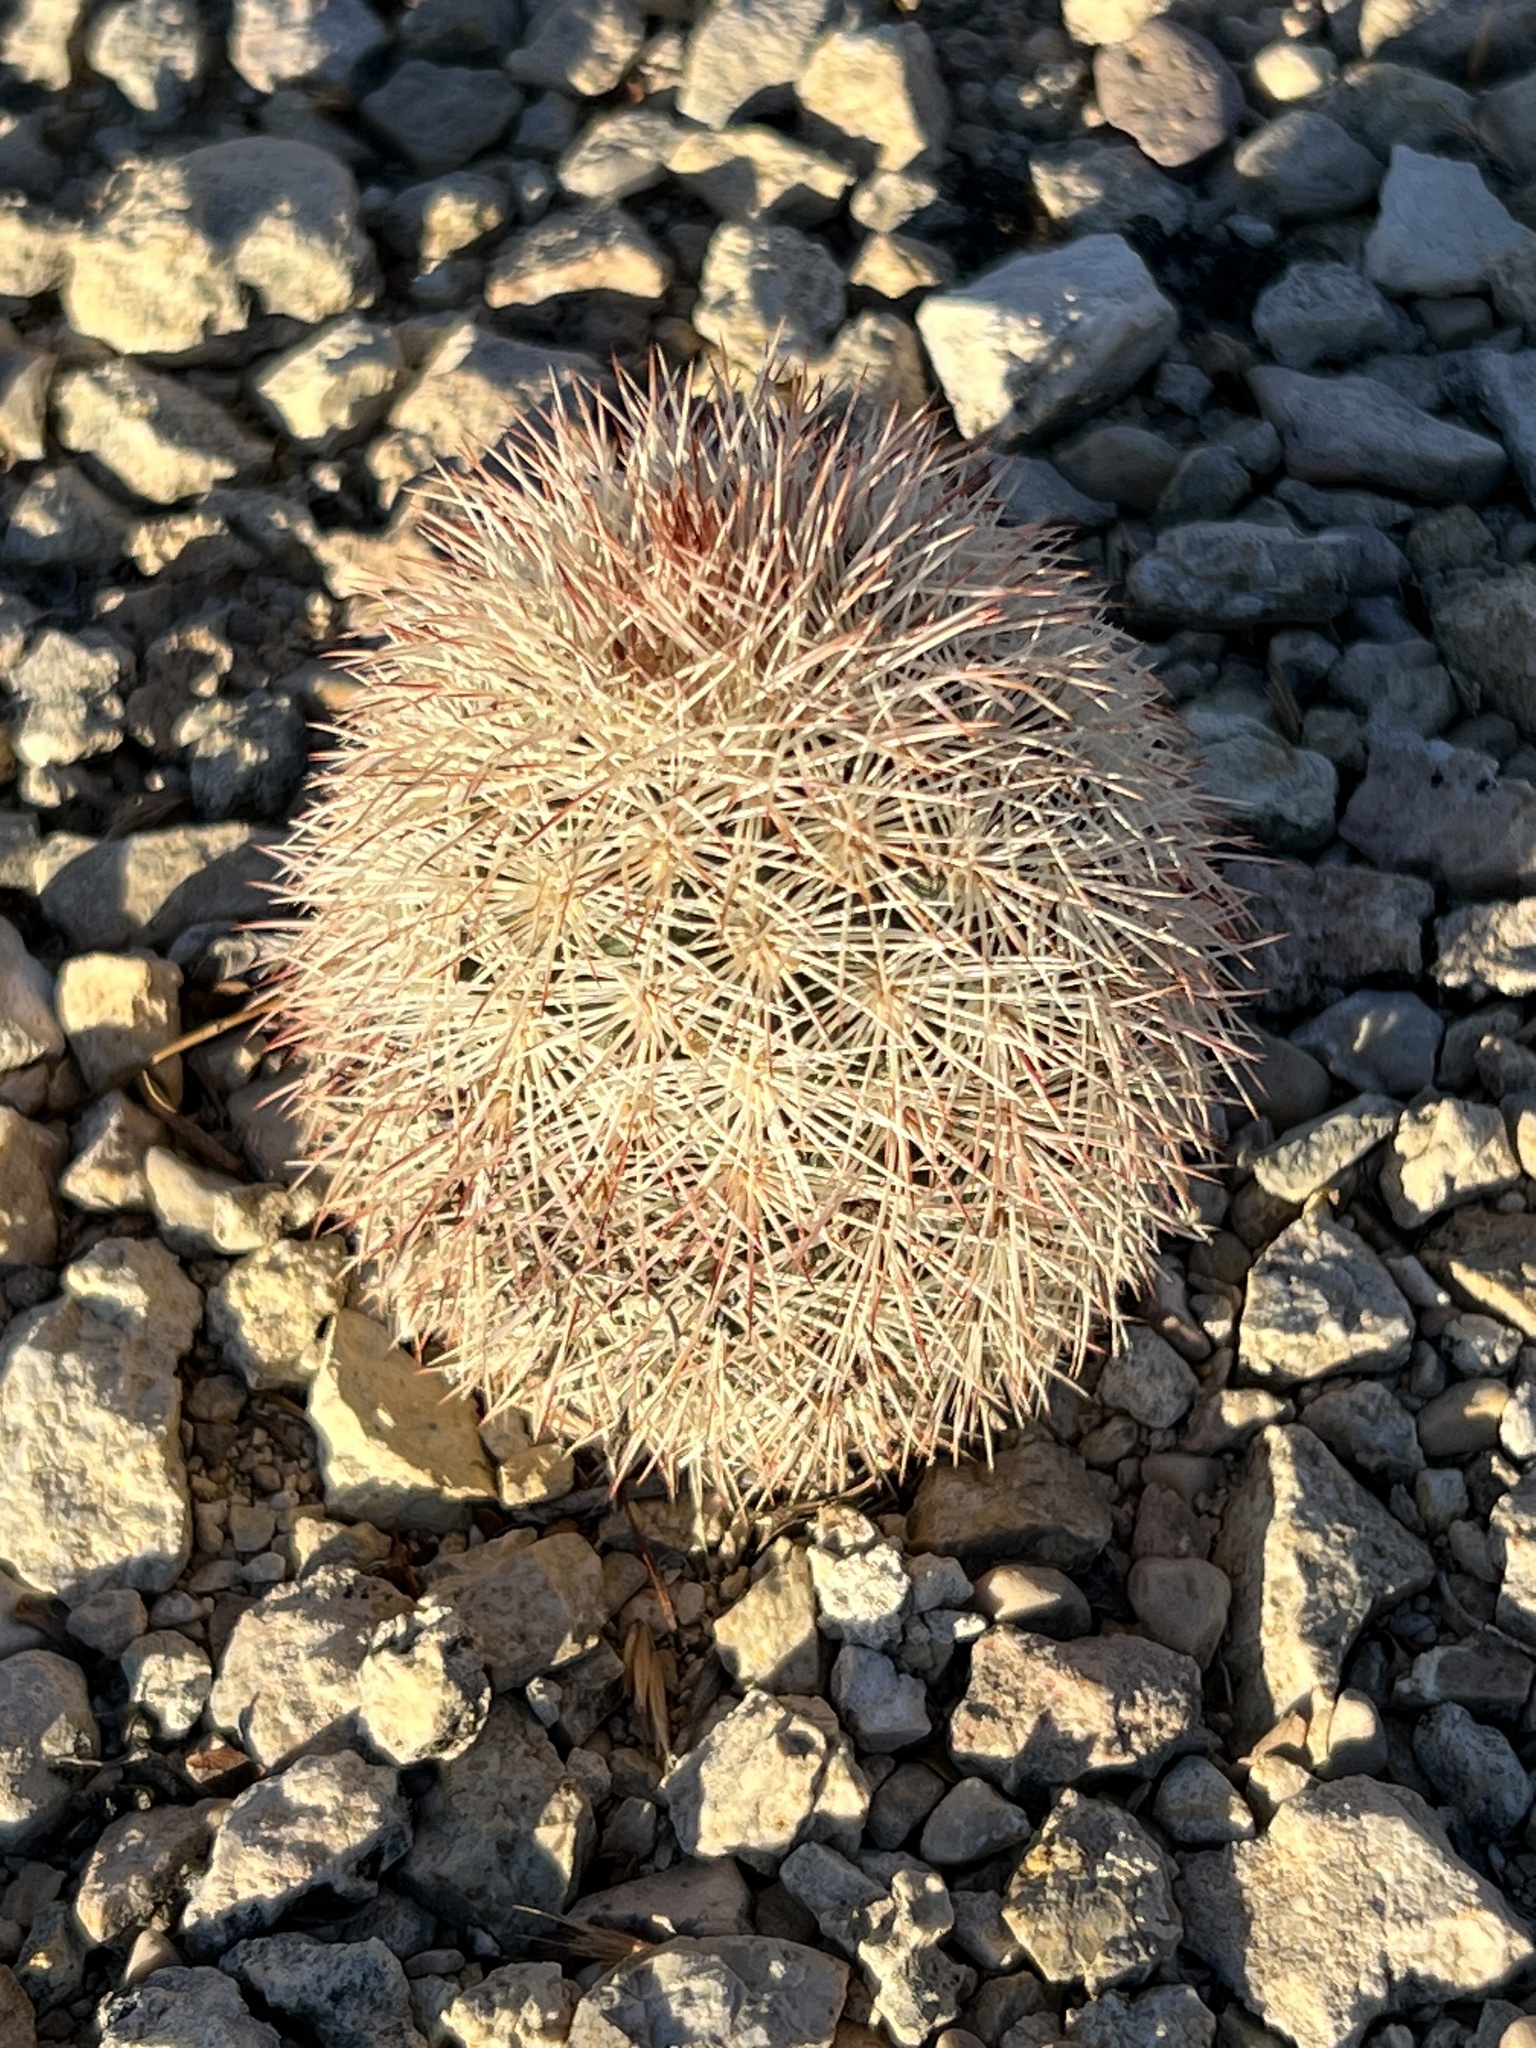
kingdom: Plantae
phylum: Tracheophyta
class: Magnoliopsida
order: Caryophyllales
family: Cactaceae
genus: Echinocereus
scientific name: Echinocereus dasyacanthus
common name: Spiny hedgehog cactus
